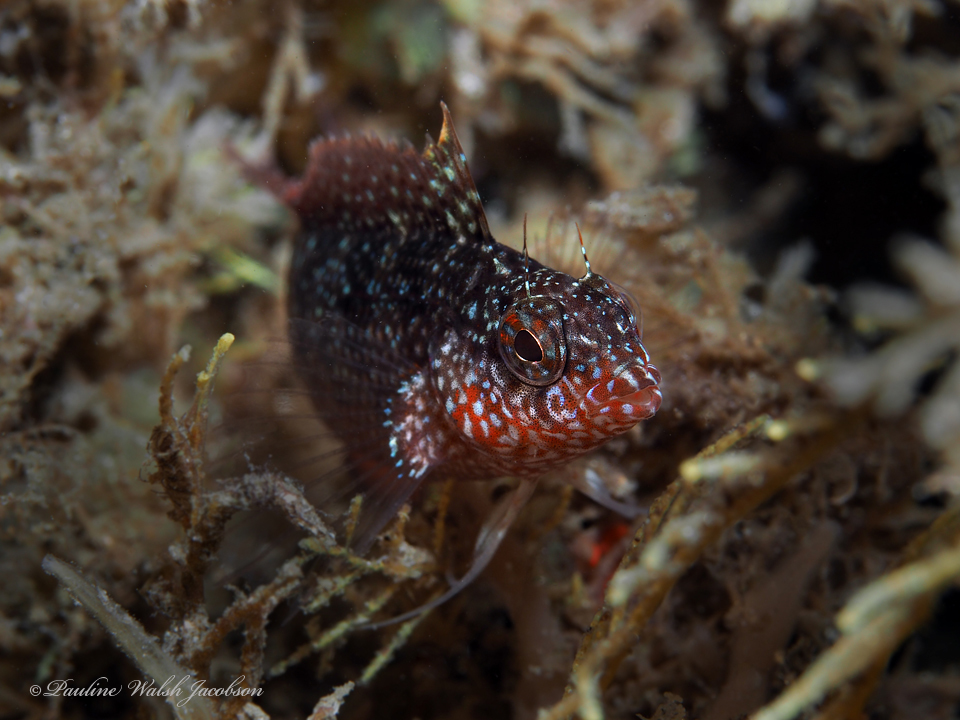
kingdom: Animalia
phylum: Chordata
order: Perciformes
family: Labrisomidae
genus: Malacoctenus
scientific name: Malacoctenus macropus
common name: Rosy blenny
